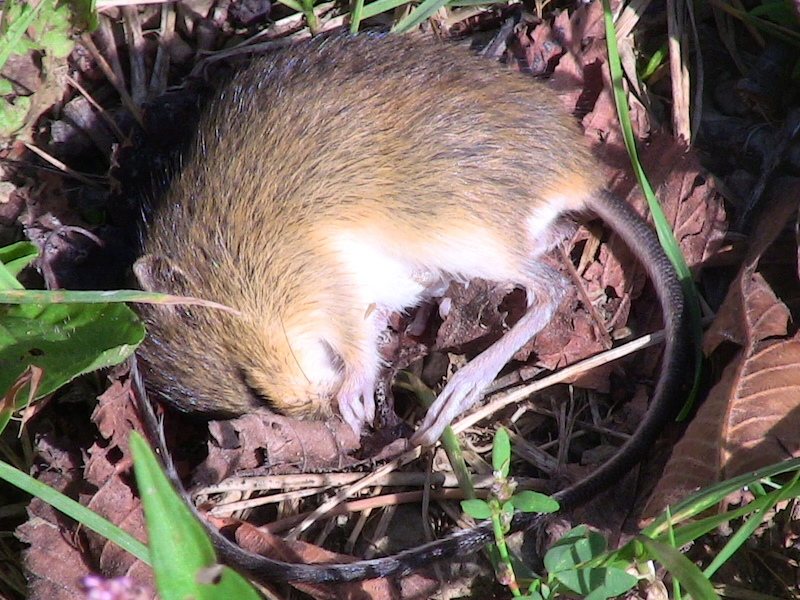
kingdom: Animalia
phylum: Chordata
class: Mammalia
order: Rodentia
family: Dipodidae
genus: Zapus
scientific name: Zapus hudsonius
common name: Meadow jumping mouse
